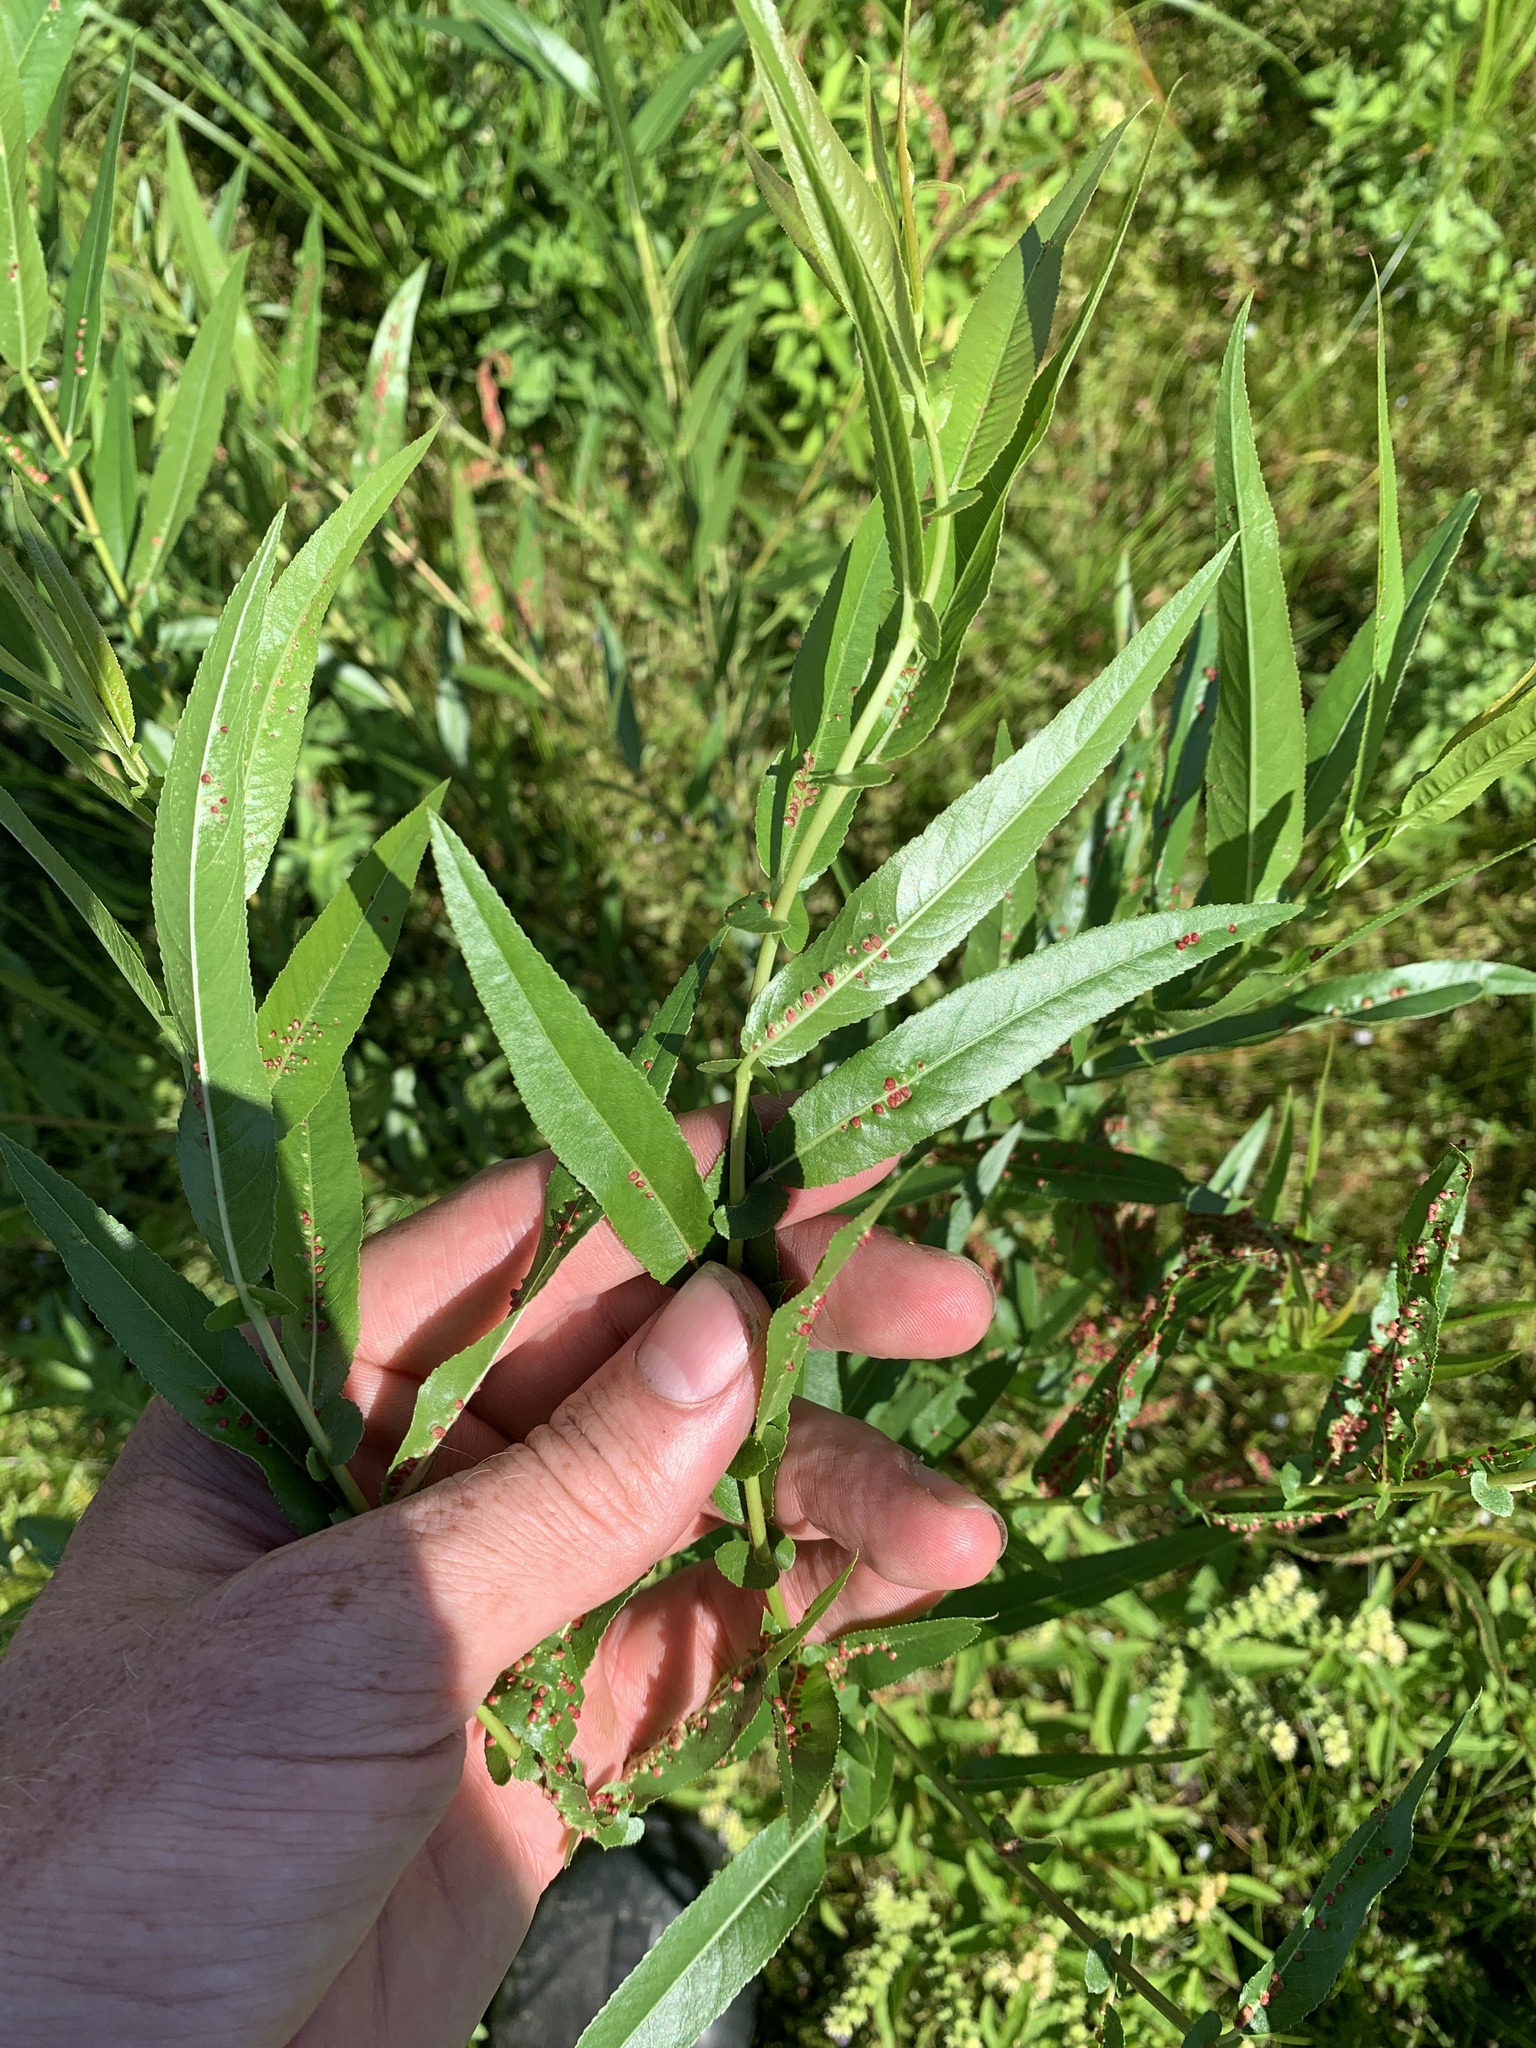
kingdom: Plantae
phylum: Tracheophyta
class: Magnoliopsida
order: Malpighiales
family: Salicaceae
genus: Salix
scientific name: Salix nigra
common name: Black willow
